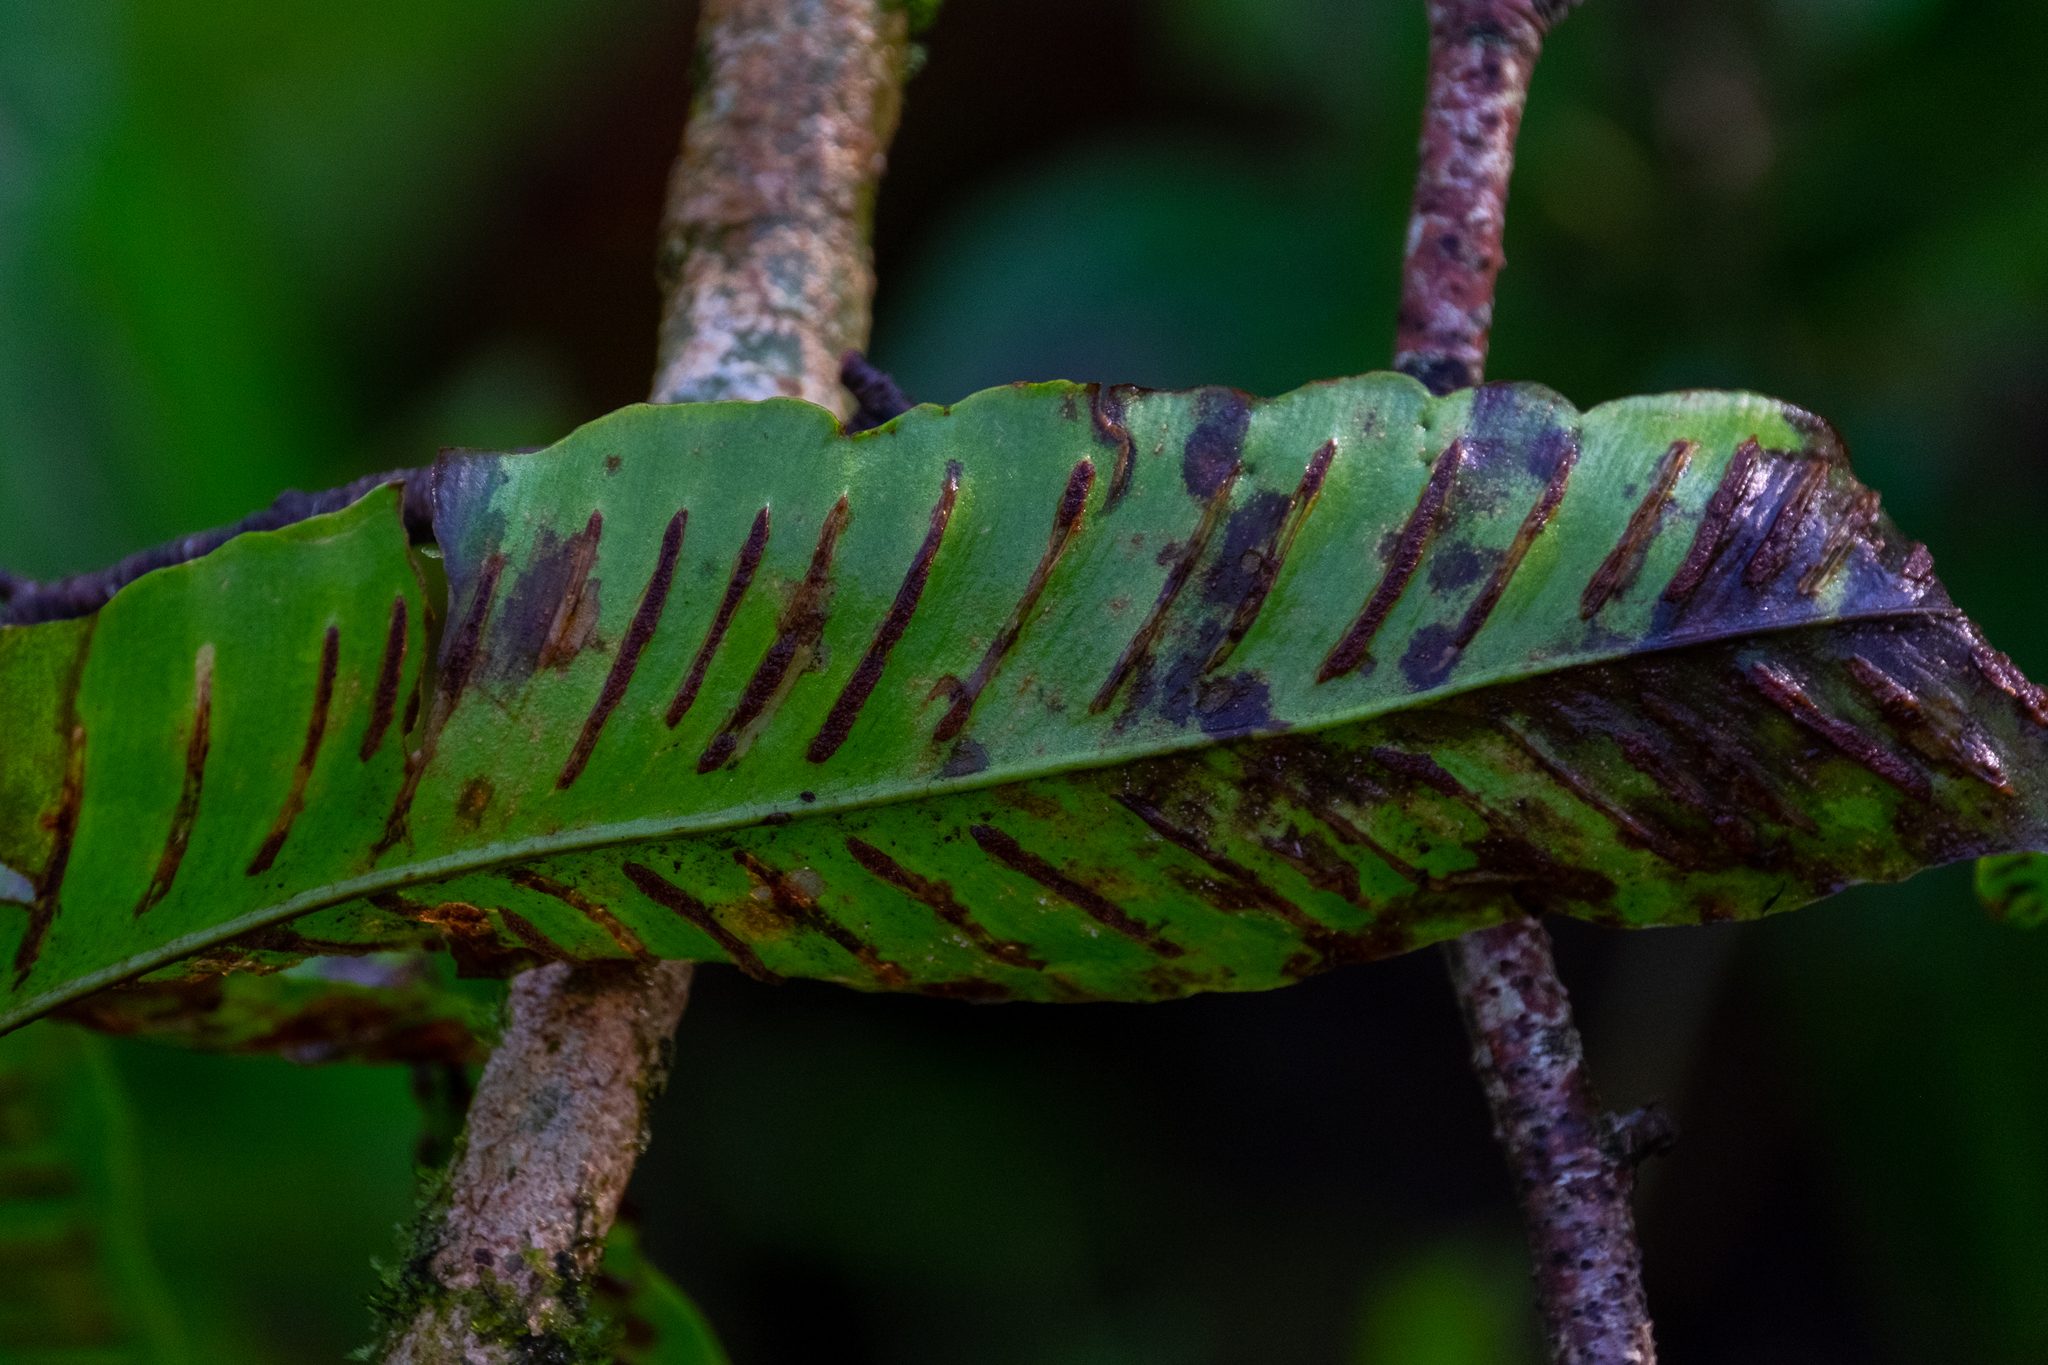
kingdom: Plantae
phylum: Tracheophyta
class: Polypodiopsida
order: Polypodiales
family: Aspleniaceae
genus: Asplenium
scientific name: Asplenium scolopendrium
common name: Hart's-tongue fern
